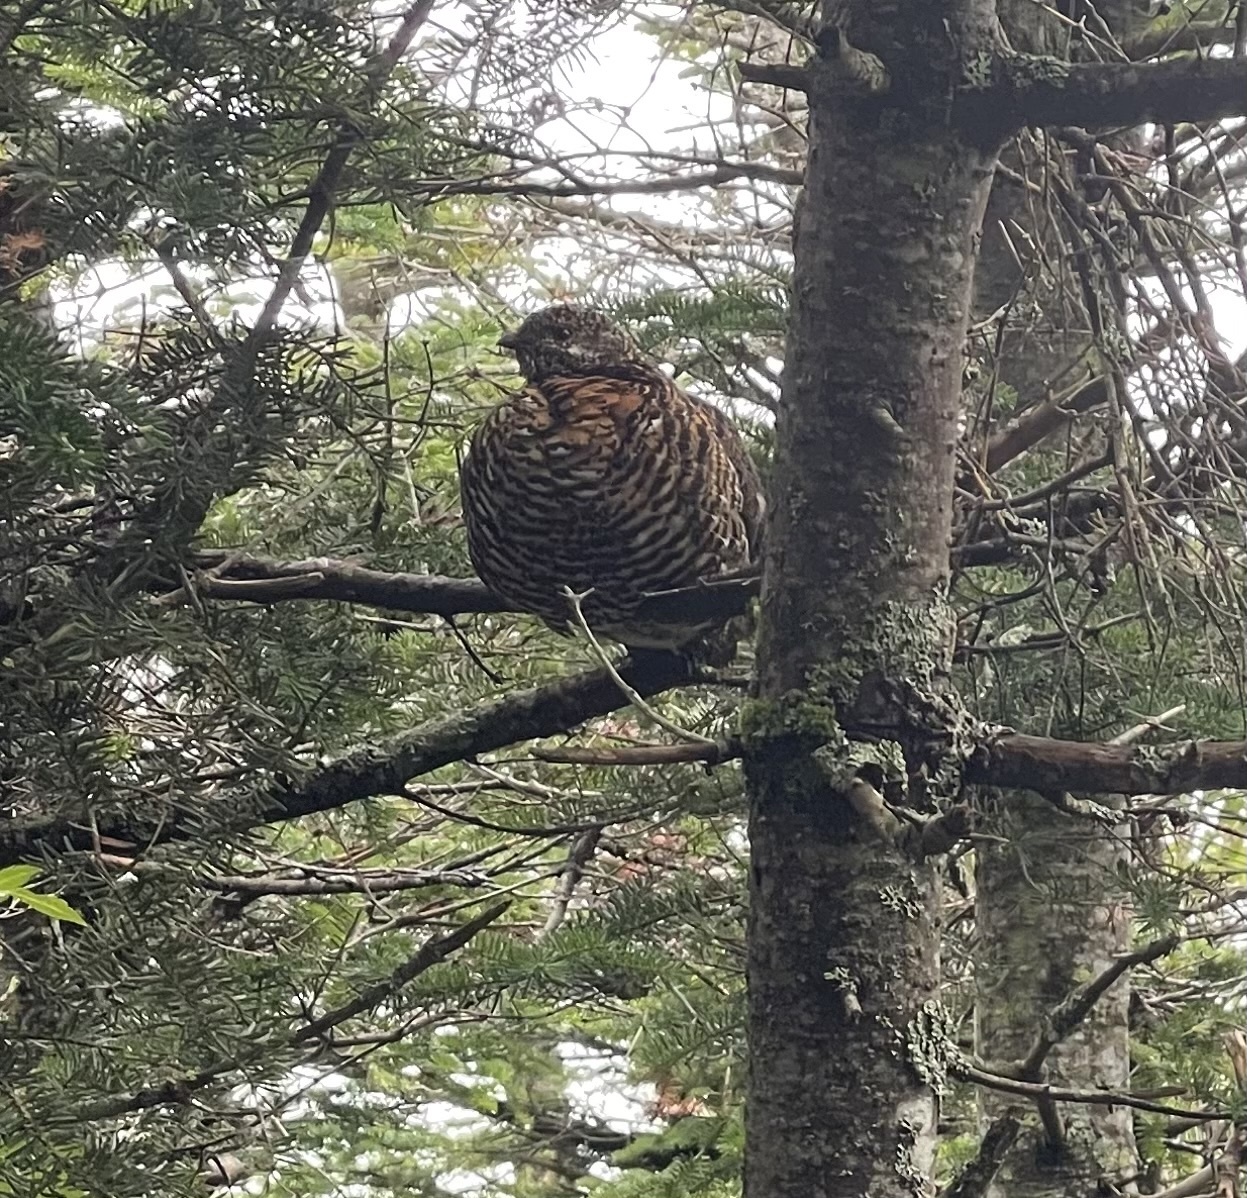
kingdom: Animalia
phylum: Chordata
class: Aves
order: Galliformes
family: Phasianidae
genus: Canachites
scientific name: Canachites canadensis
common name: Spruce grouse
